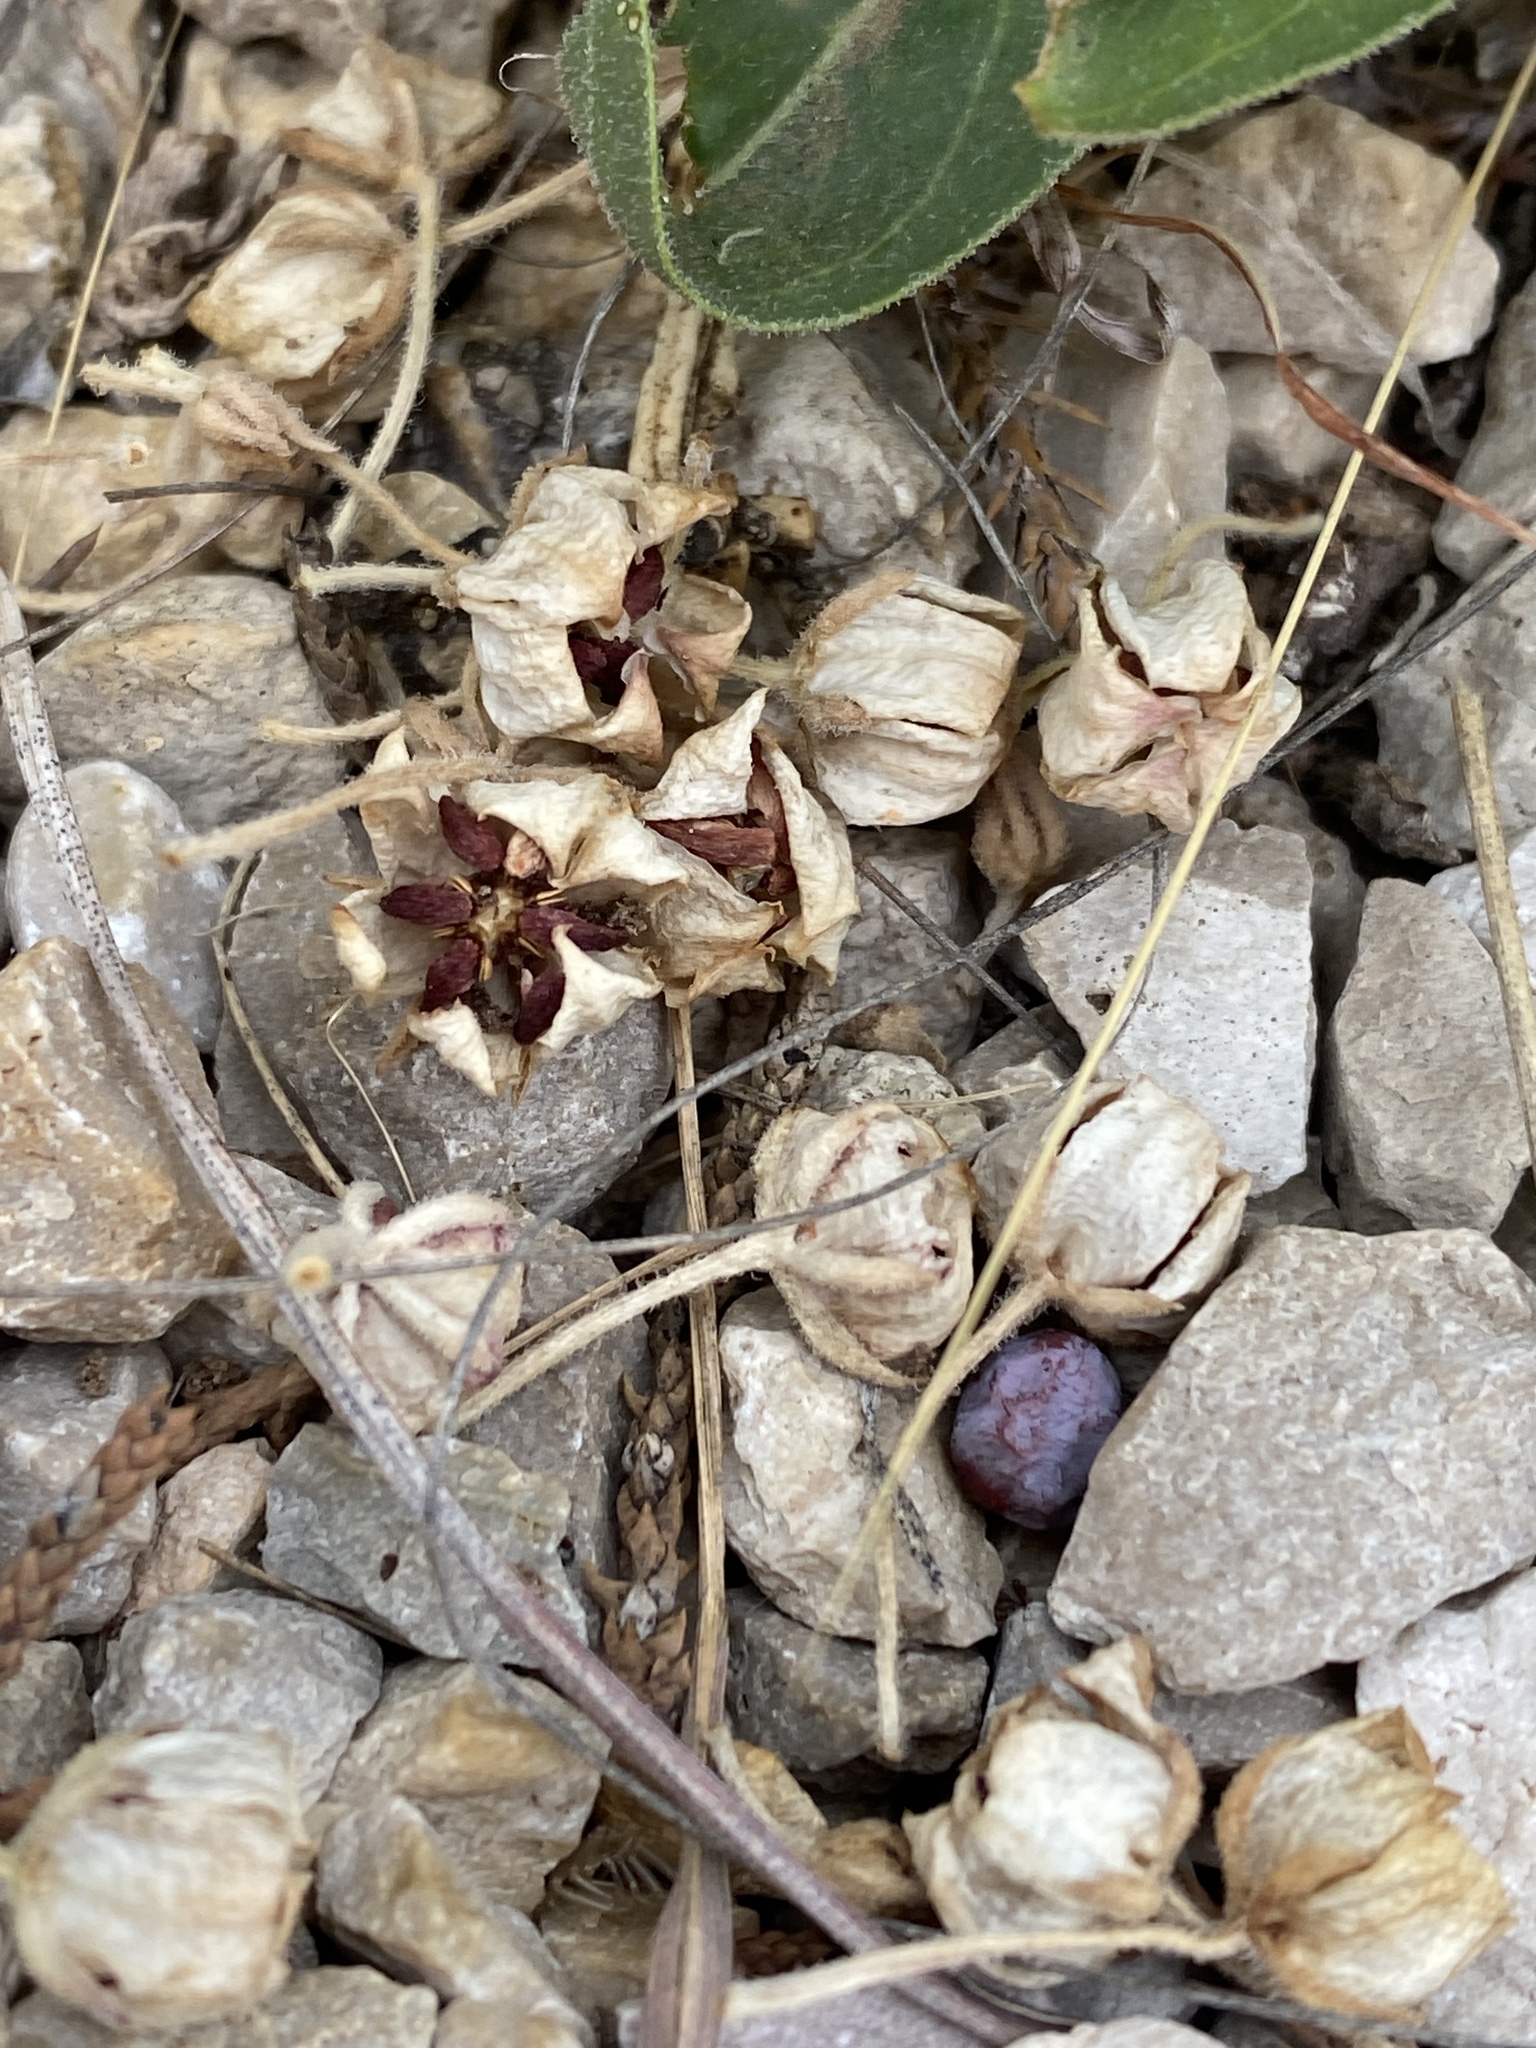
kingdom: Plantae
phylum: Tracheophyta
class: Magnoliopsida
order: Gentianales
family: Apocynaceae
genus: Asclepias
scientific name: Asclepias asperula
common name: Antelope horns
